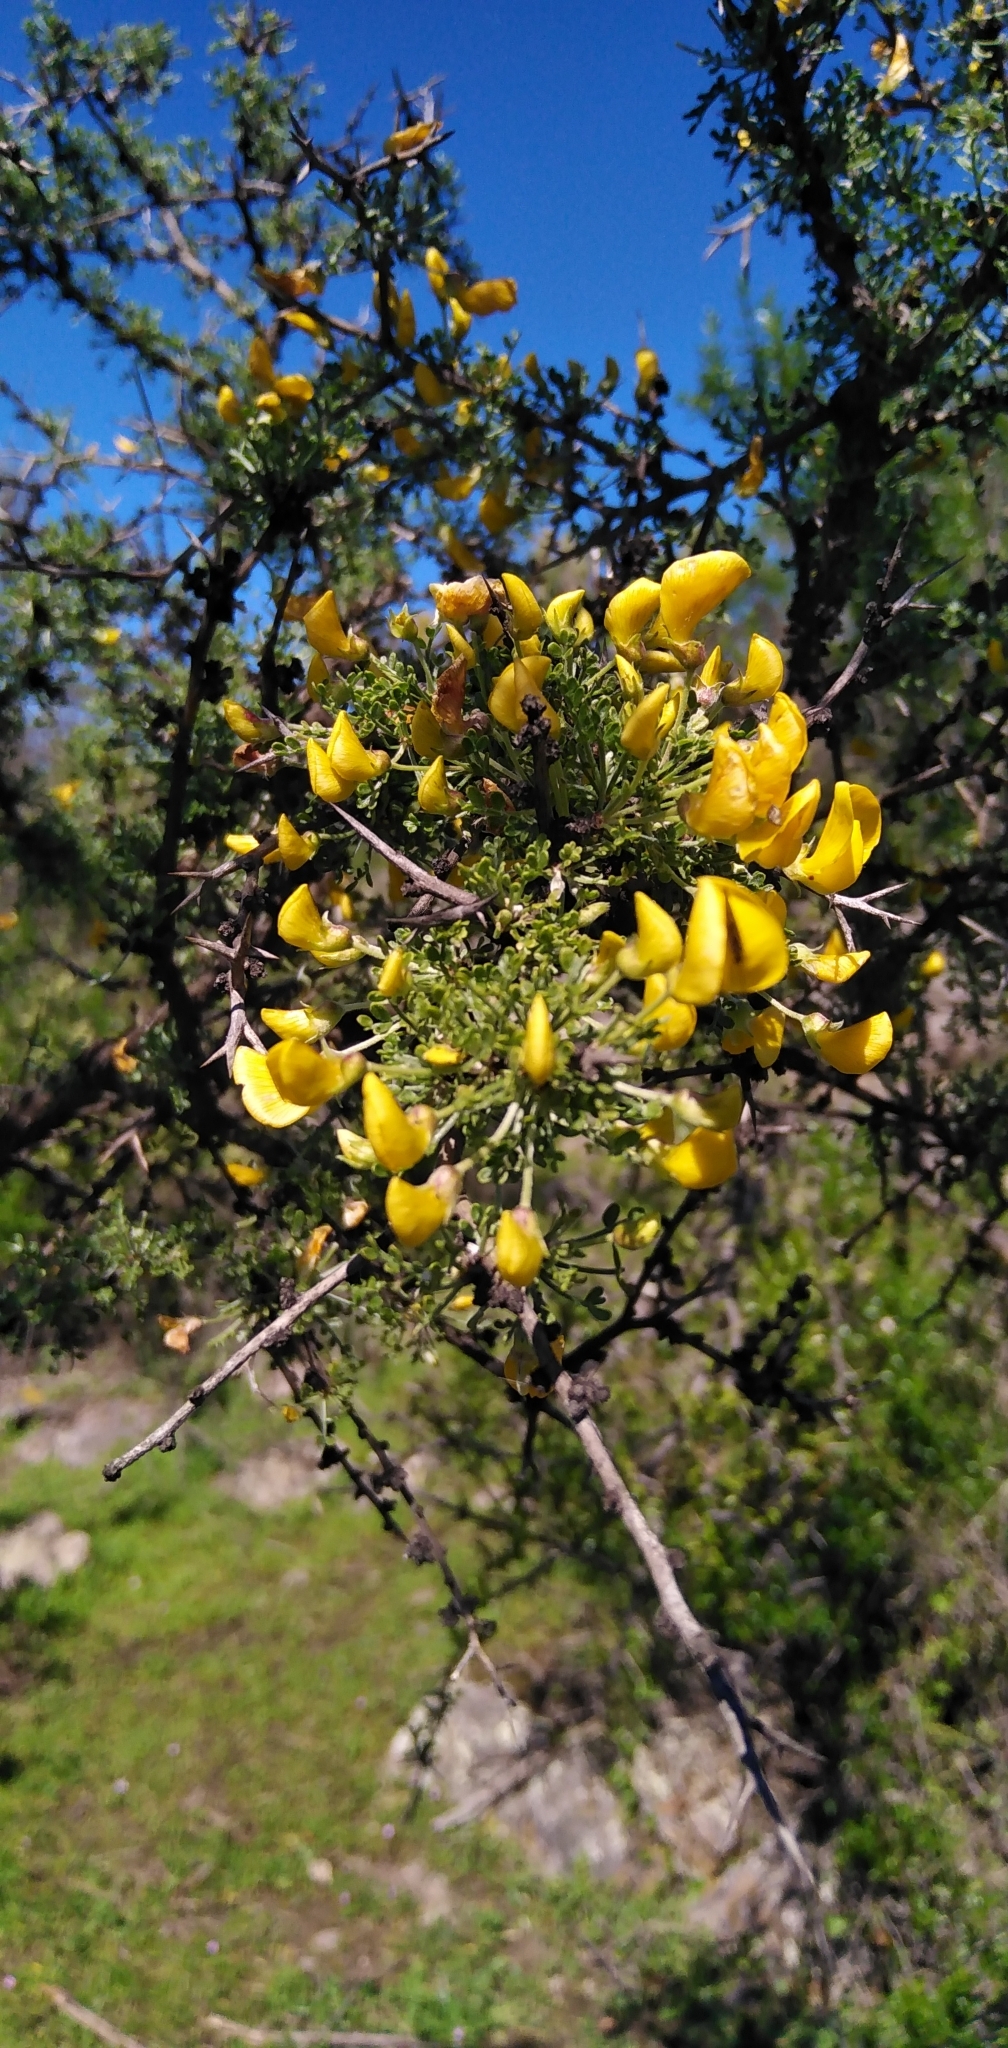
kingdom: Plantae
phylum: Tracheophyta
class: Magnoliopsida
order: Fabales
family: Fabaceae
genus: Adesmia
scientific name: Adesmia confusa
